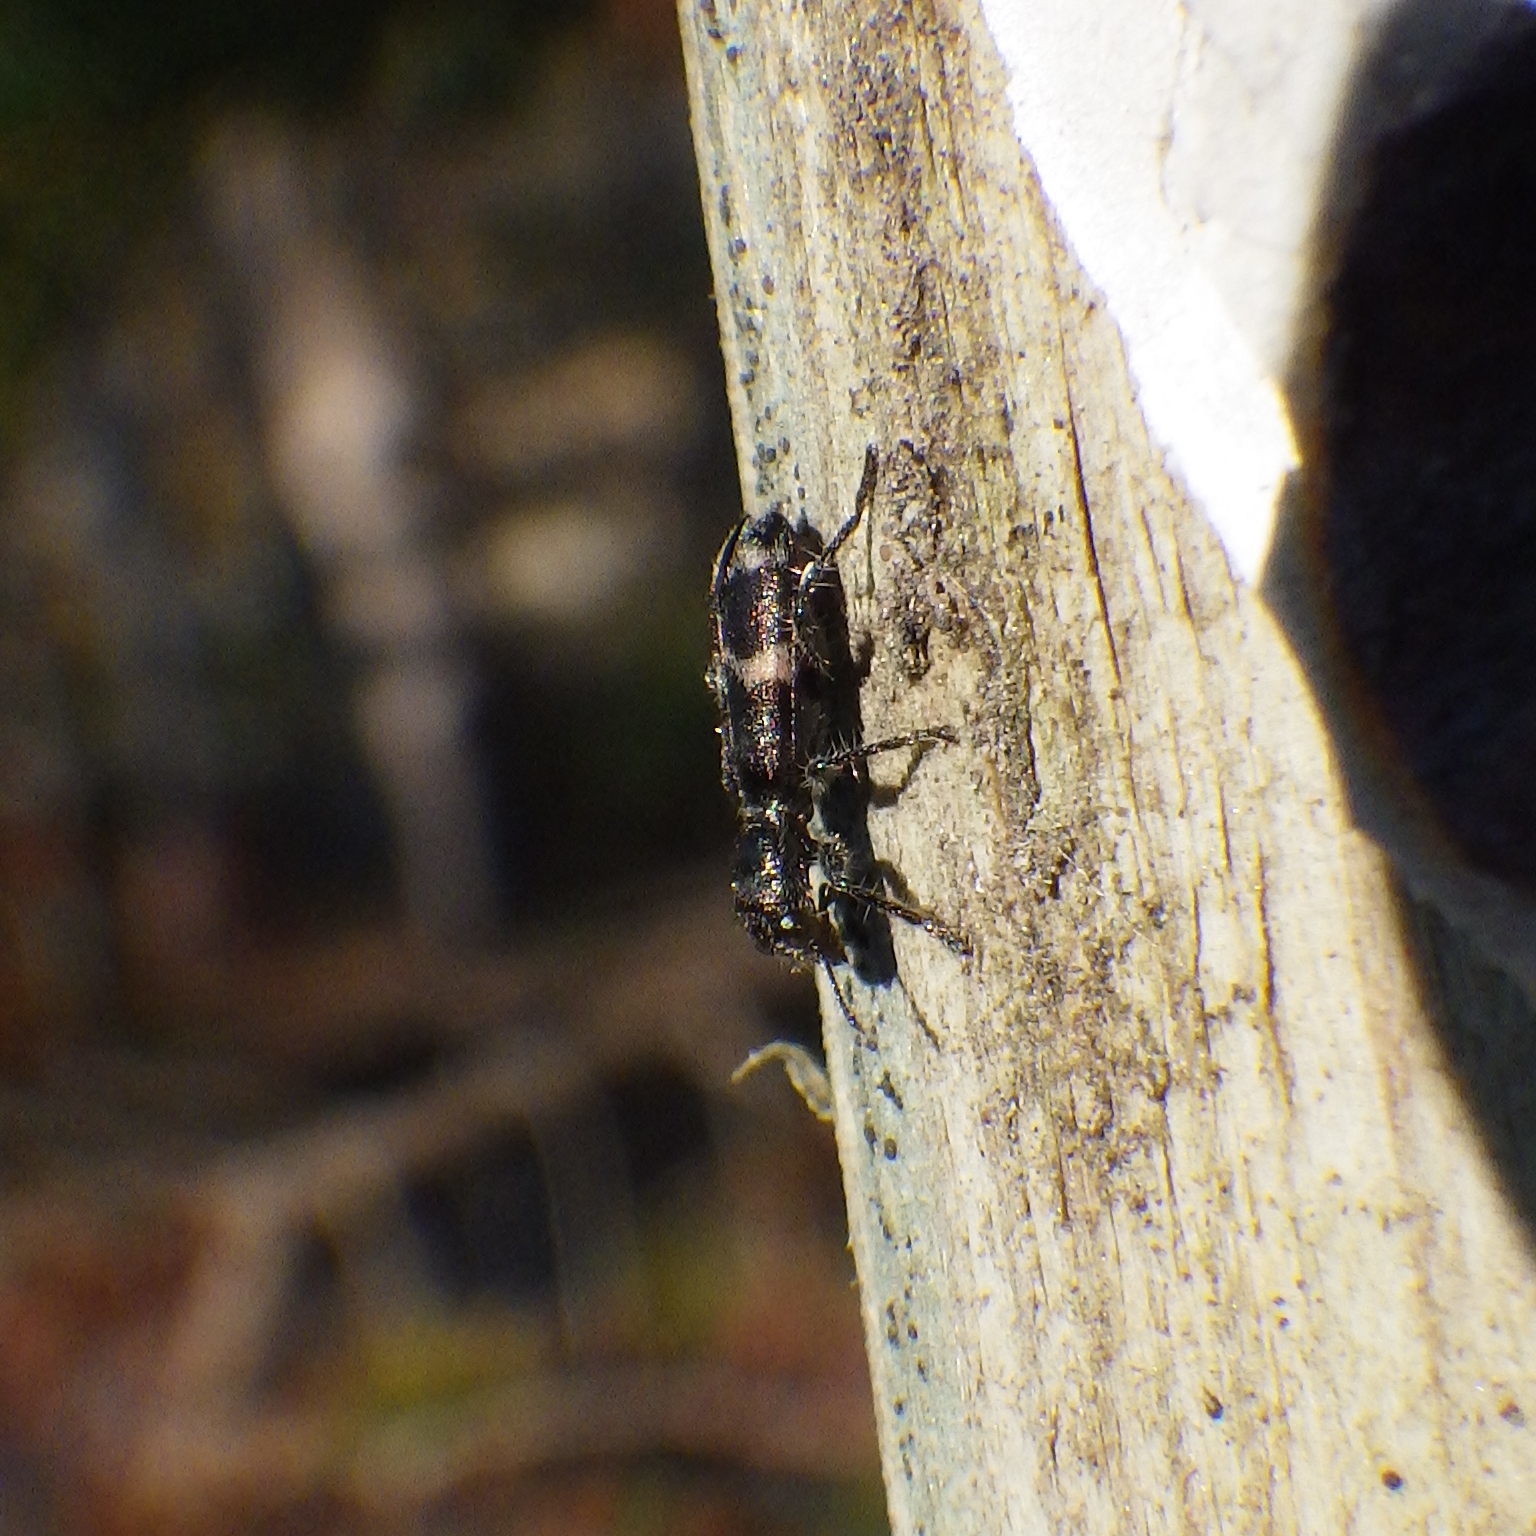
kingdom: Animalia
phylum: Arthropoda
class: Insecta
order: Coleoptera
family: Cleridae
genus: Enoclerus
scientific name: Enoclerus nigripes
